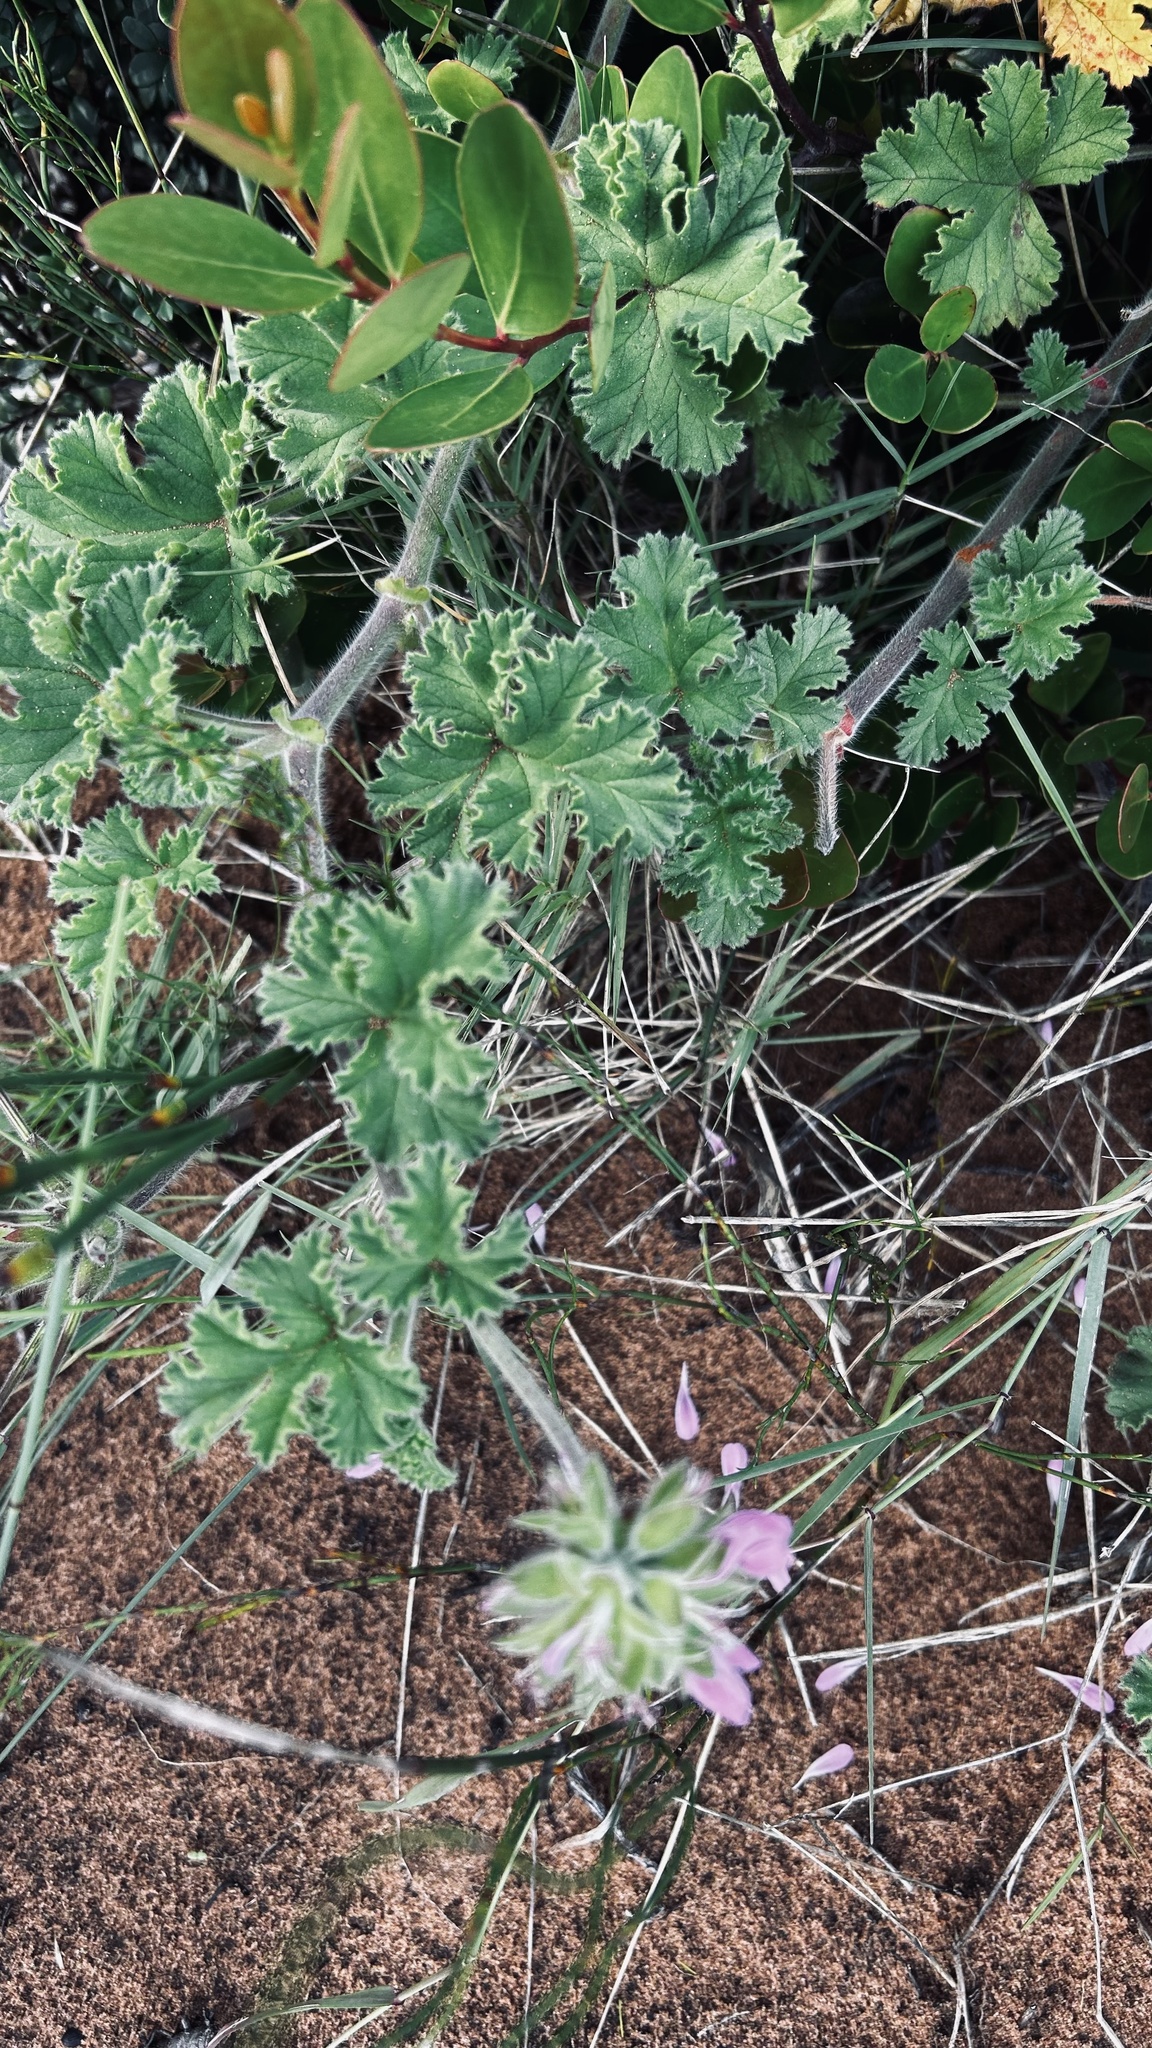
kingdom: Plantae
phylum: Tracheophyta
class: Magnoliopsida
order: Geraniales
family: Geraniaceae
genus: Pelargonium
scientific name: Pelargonium capitatum
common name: Rose scented geranium
